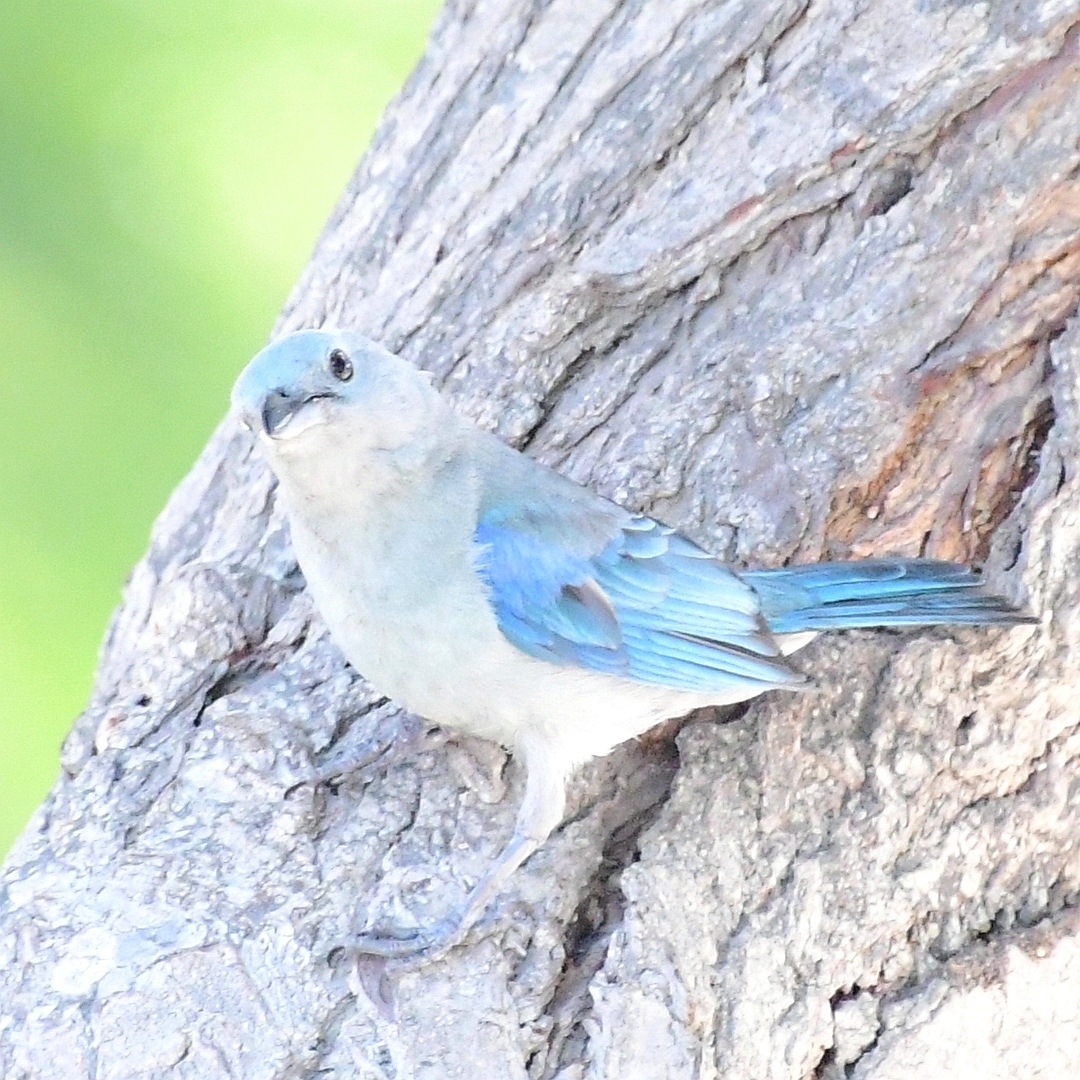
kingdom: Animalia
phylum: Chordata
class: Aves
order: Passeriformes
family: Thraupidae
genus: Thraupis
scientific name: Thraupis episcopus
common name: Blue-grey tanager
